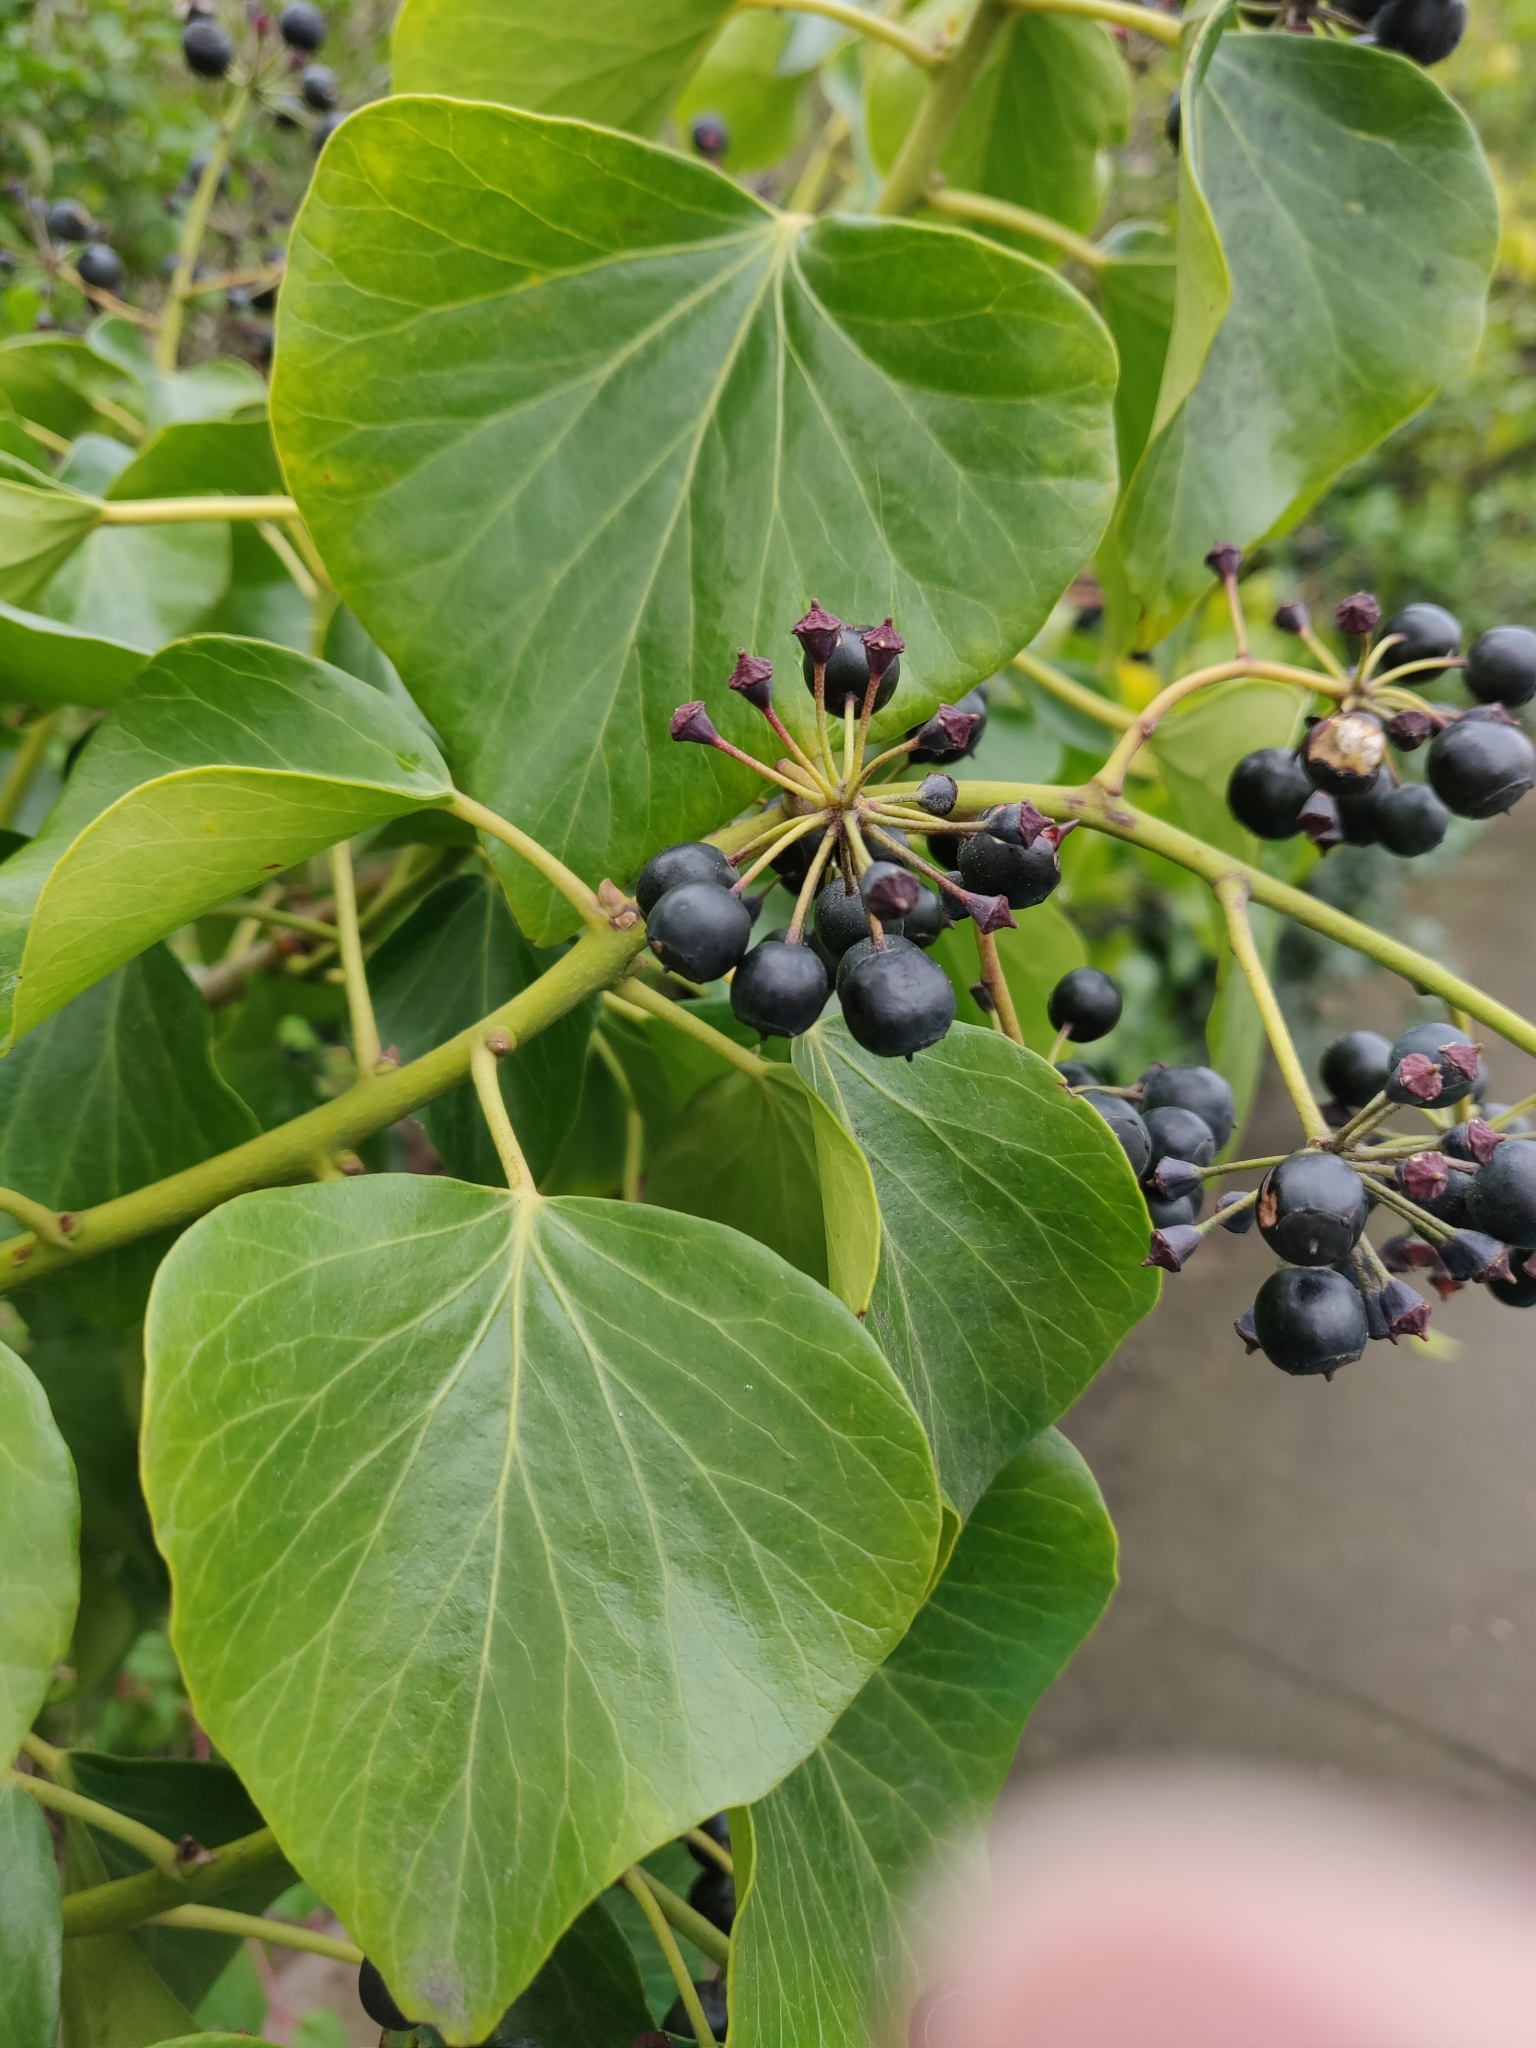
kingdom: Plantae
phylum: Tracheophyta
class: Magnoliopsida
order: Apiales
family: Araliaceae
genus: Hedera
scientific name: Hedera canariensis
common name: Madeira ivy
